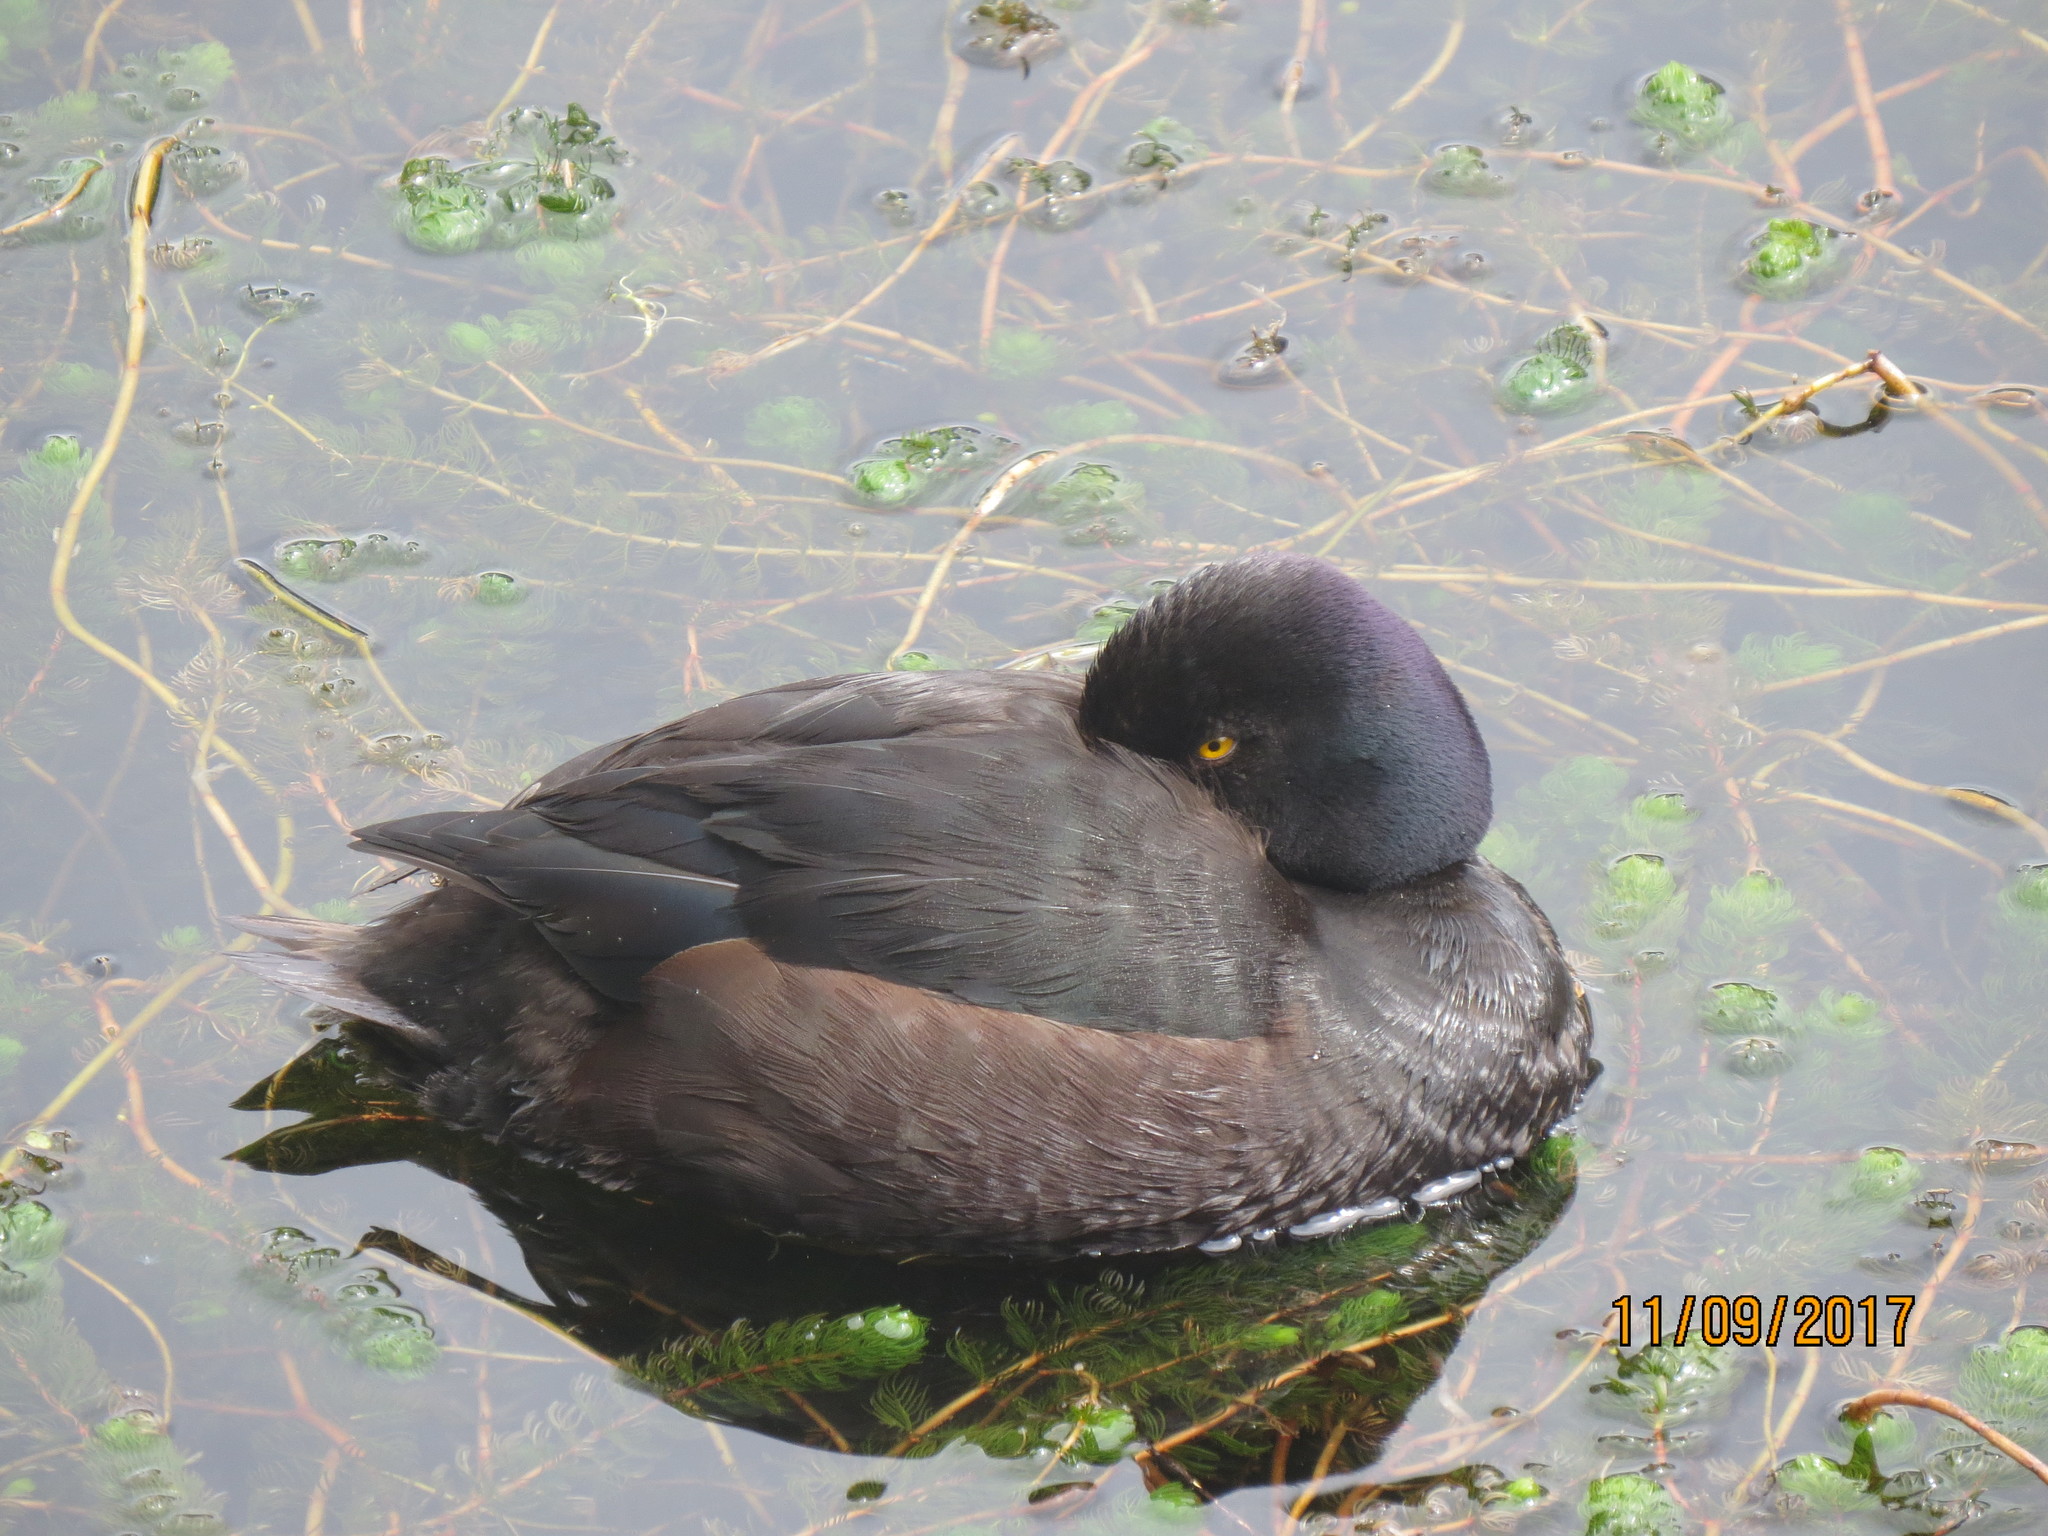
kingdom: Animalia
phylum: Chordata
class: Aves
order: Anseriformes
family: Anatidae
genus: Aythya
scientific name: Aythya novaeseelandiae
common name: New zealand scaup
